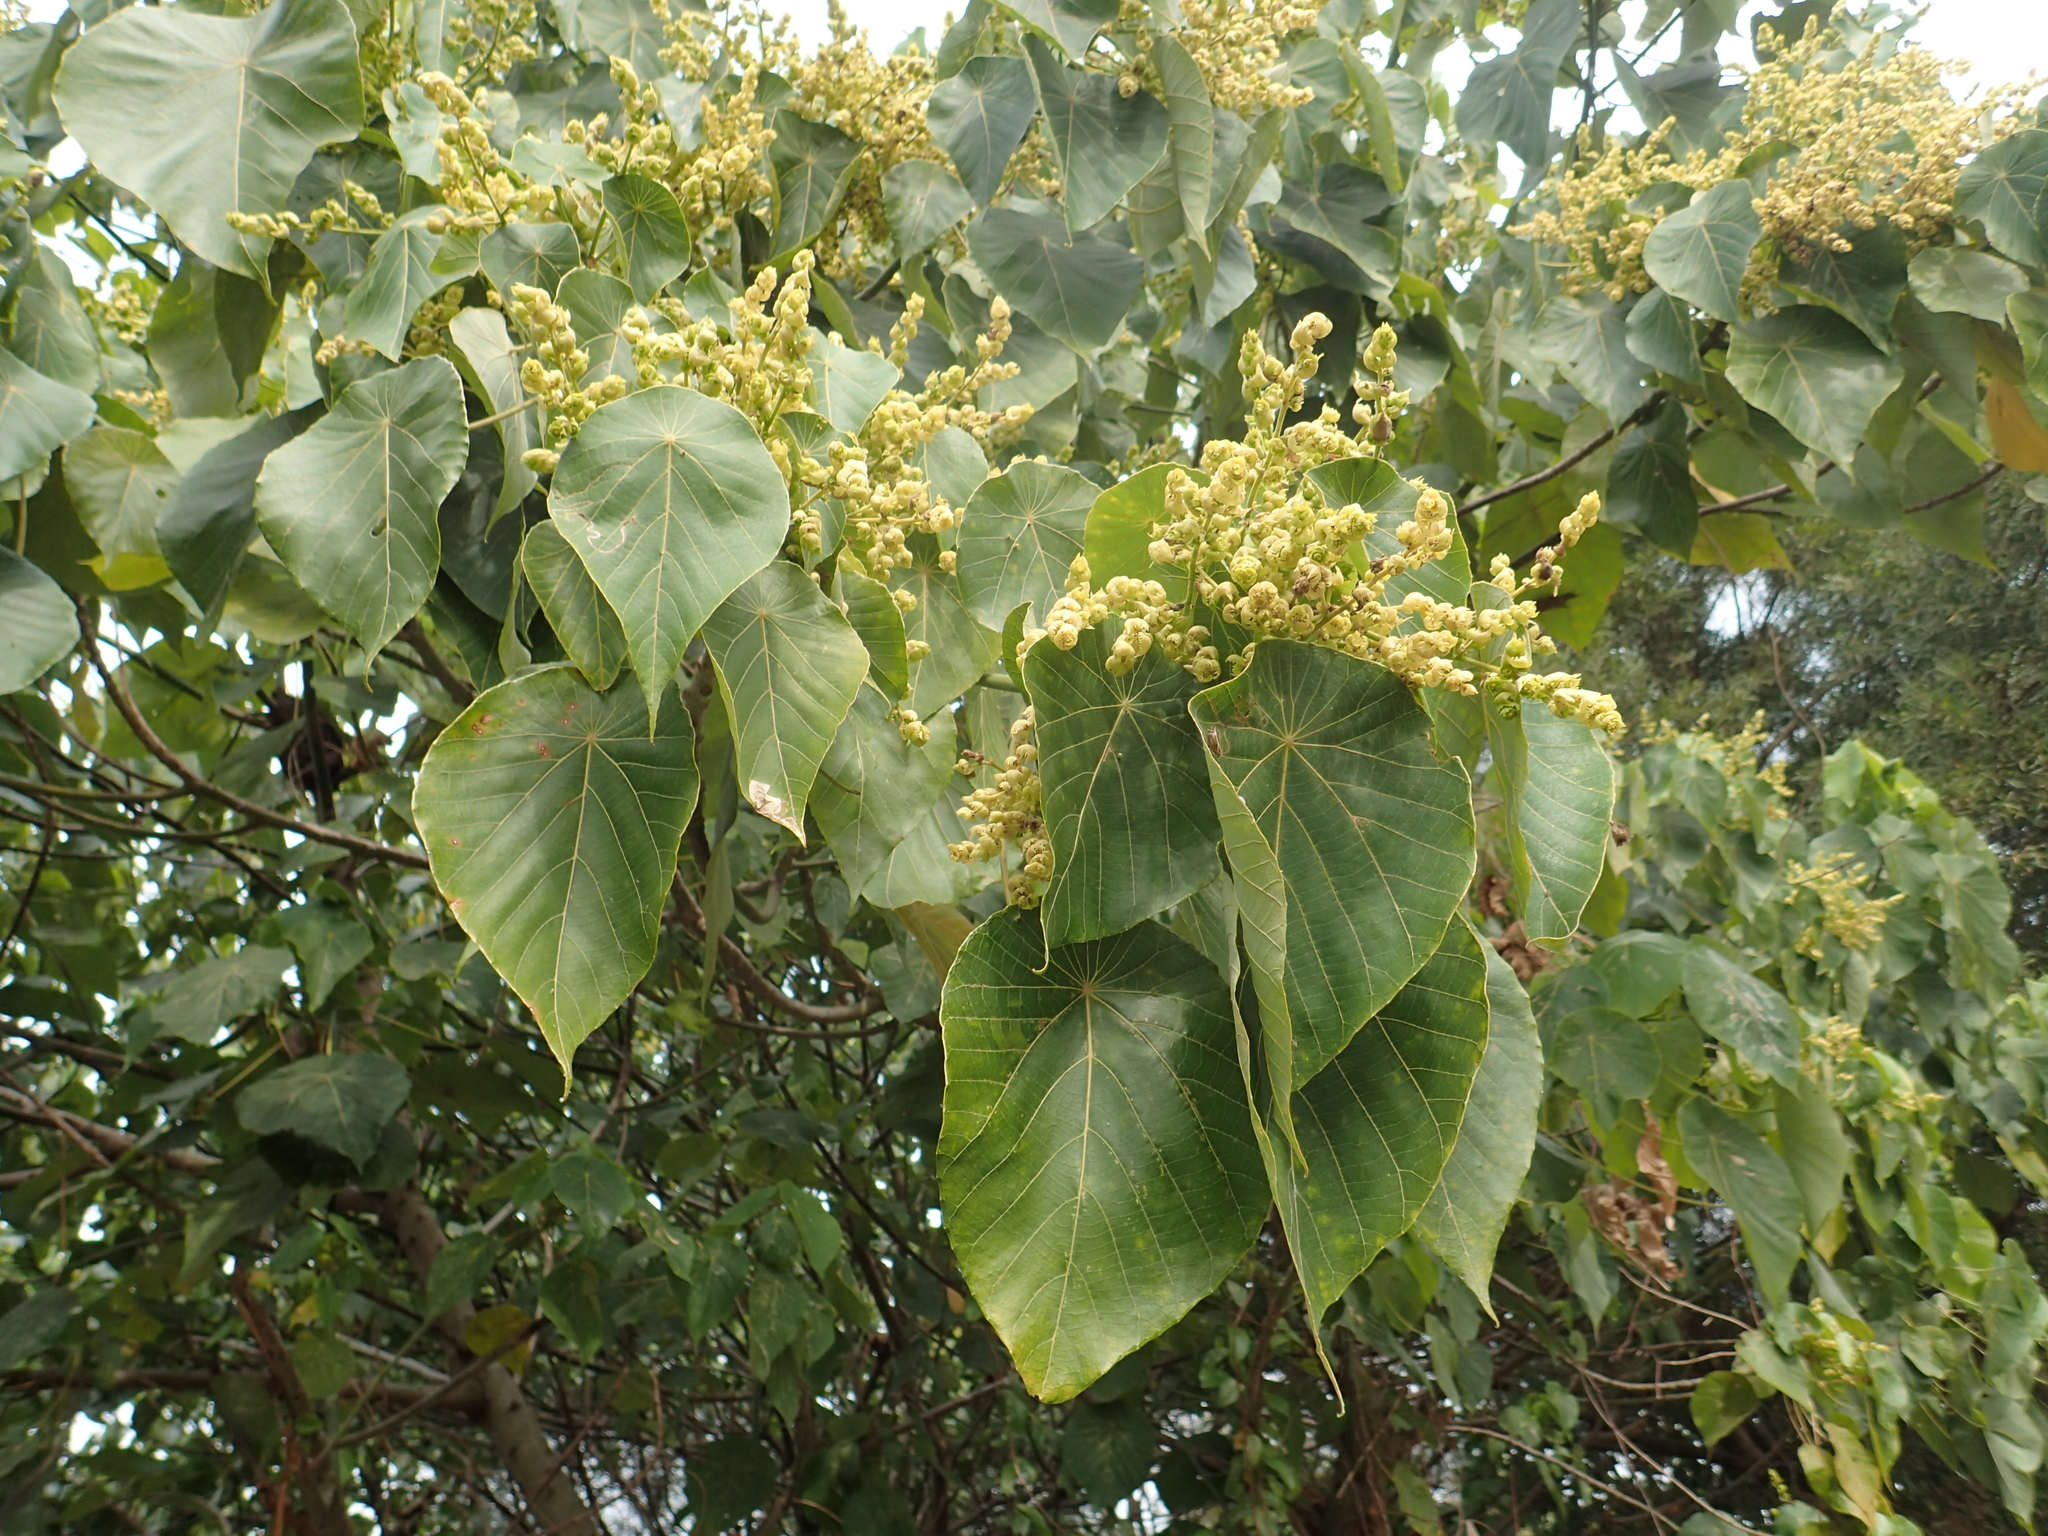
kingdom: Plantae
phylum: Tracheophyta
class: Magnoliopsida
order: Malpighiales
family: Euphorbiaceae
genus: Macaranga
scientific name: Macaranga tanarius
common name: Parasol leaf tree
